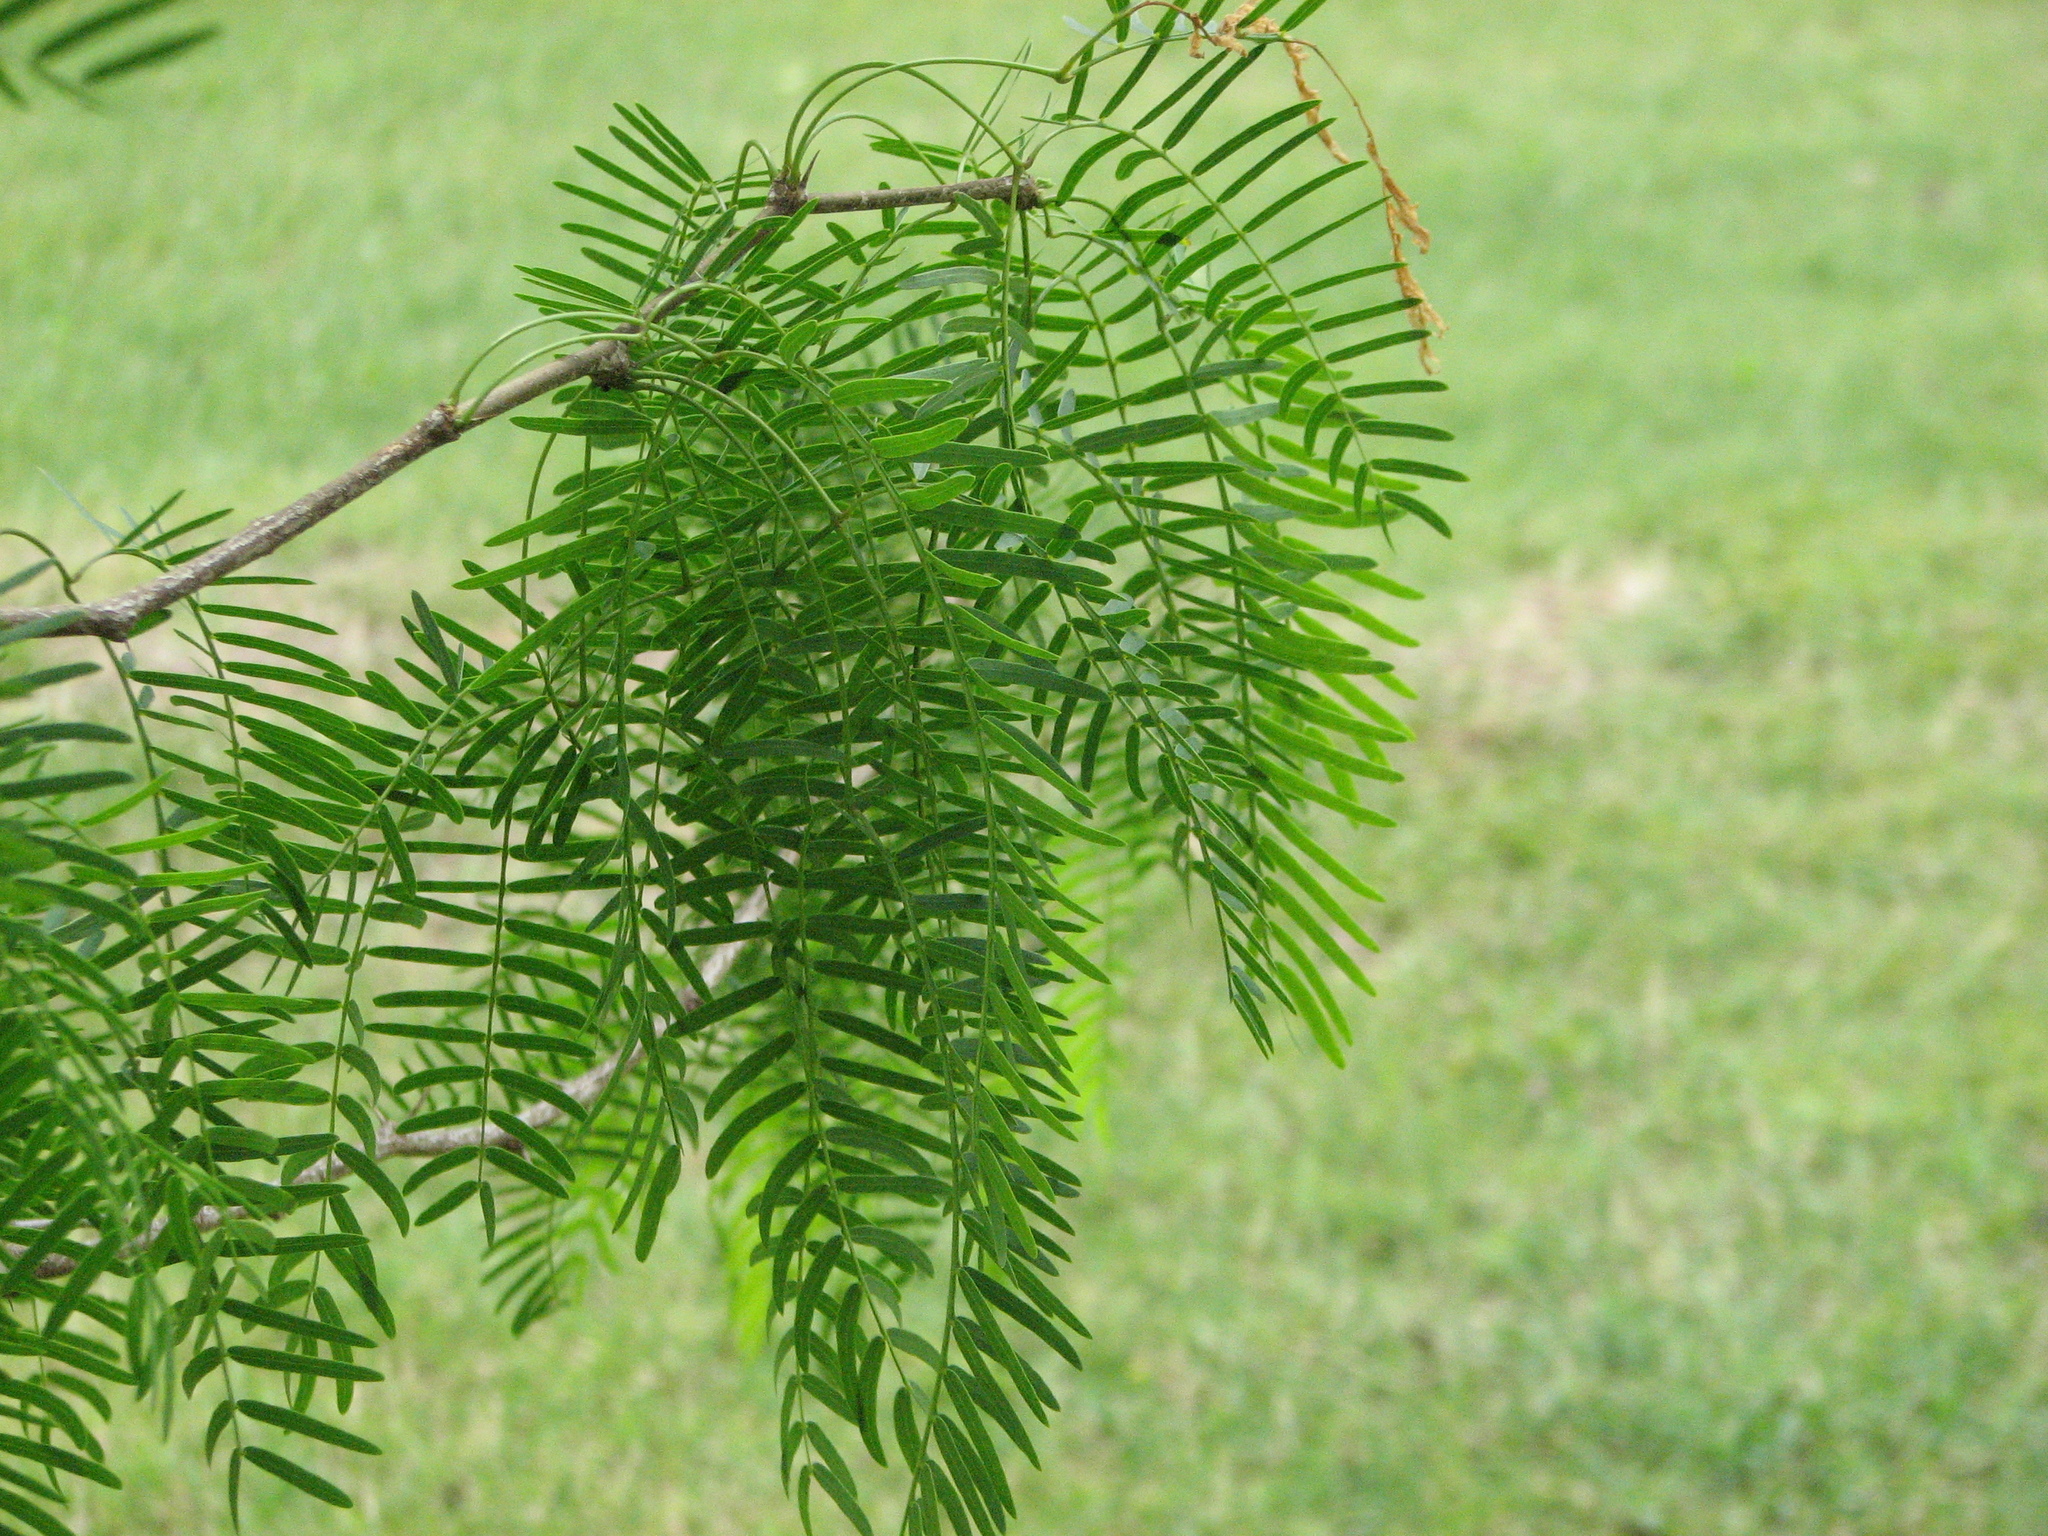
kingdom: Plantae
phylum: Tracheophyta
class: Magnoliopsida
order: Fabales
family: Fabaceae
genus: Prosopis
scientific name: Prosopis glandulosa
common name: Honey mesquite
